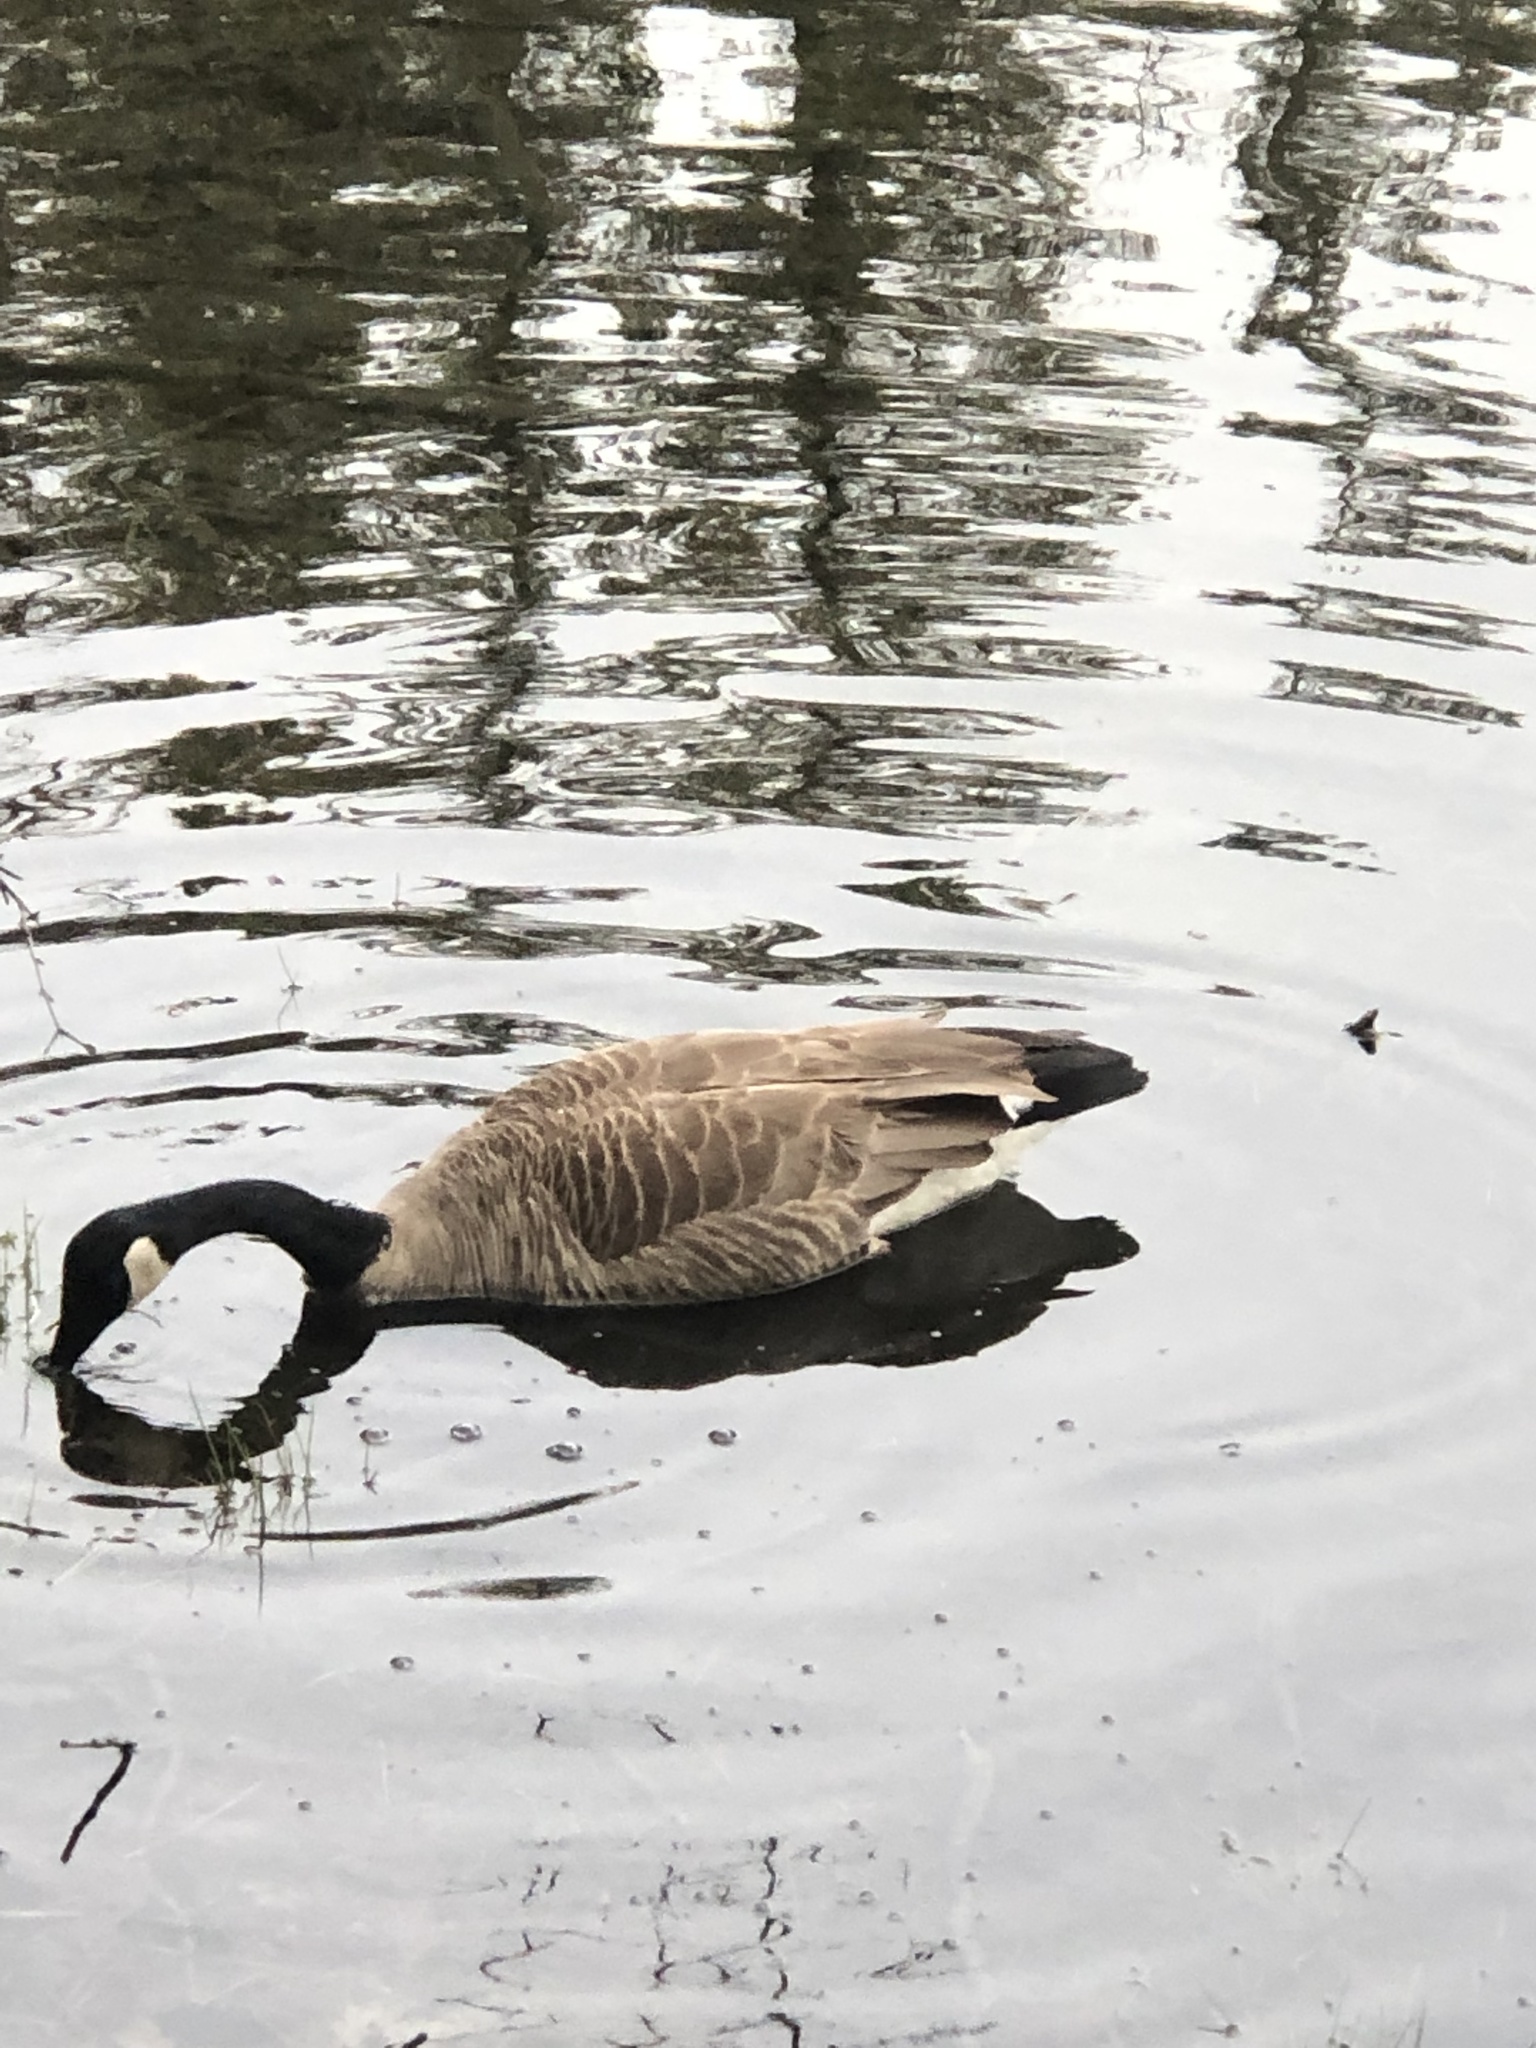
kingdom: Animalia
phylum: Chordata
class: Aves
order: Anseriformes
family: Anatidae
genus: Branta
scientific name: Branta canadensis
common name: Canada goose
